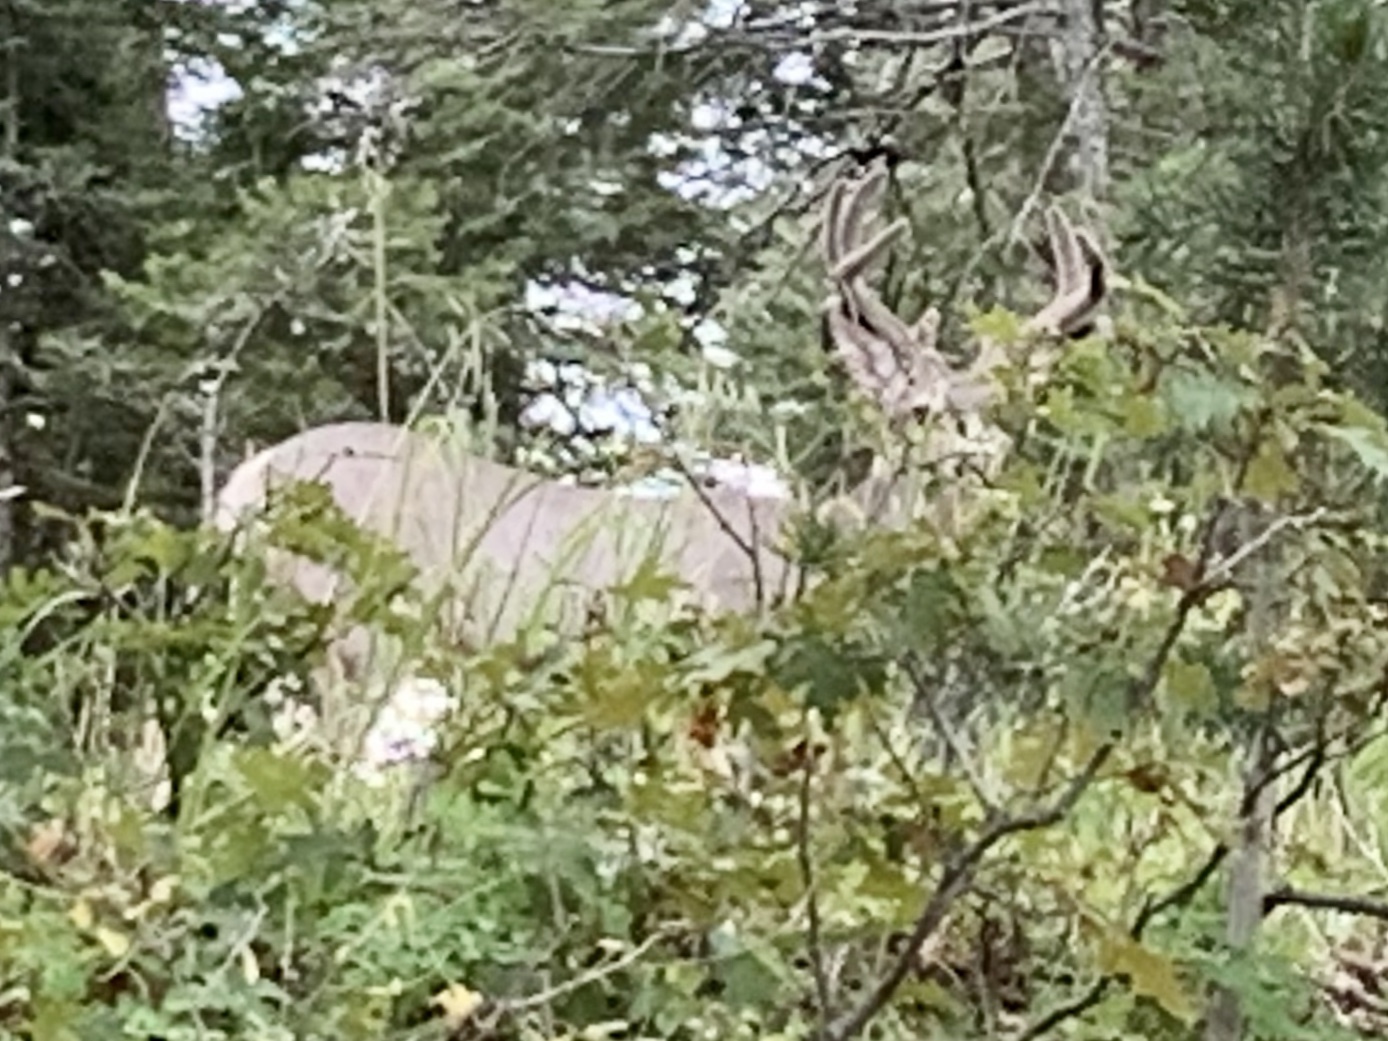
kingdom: Animalia
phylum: Chordata
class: Mammalia
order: Artiodactyla
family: Cervidae
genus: Odocoileus
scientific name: Odocoileus hemionus
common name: Mule deer
